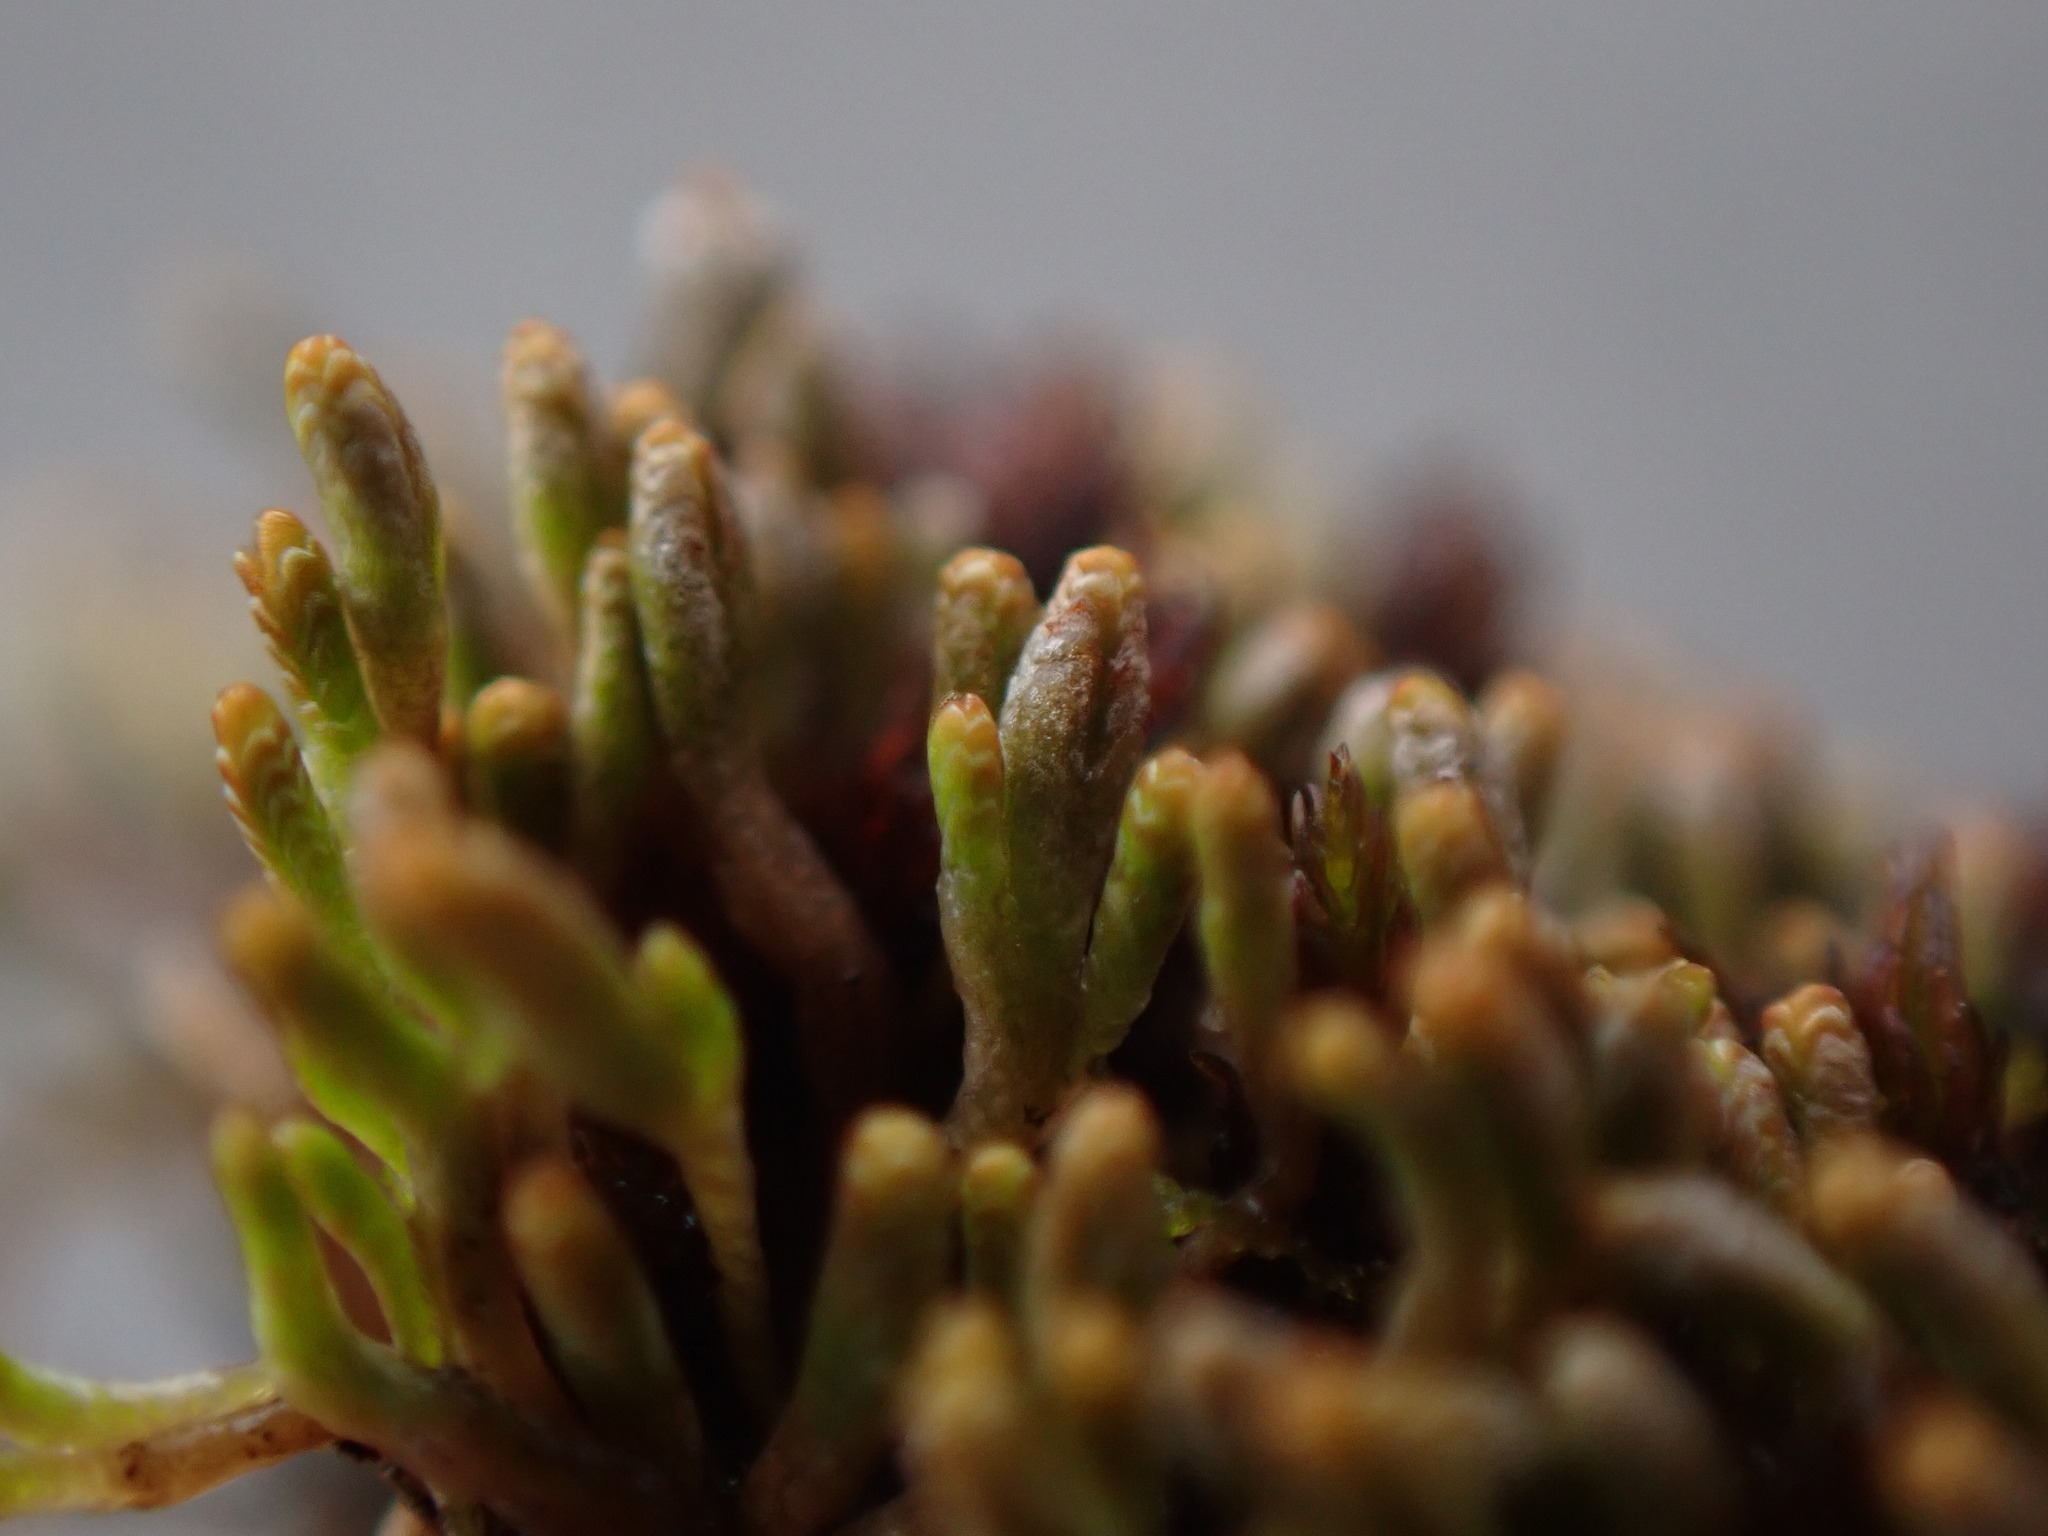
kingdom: Plantae
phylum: Marchantiophyta
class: Jungermanniopsida
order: Jungermanniales
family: Gymnomitriaceae
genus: Gymnomitrion
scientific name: Gymnomitrion obtusum
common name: White frostwort
